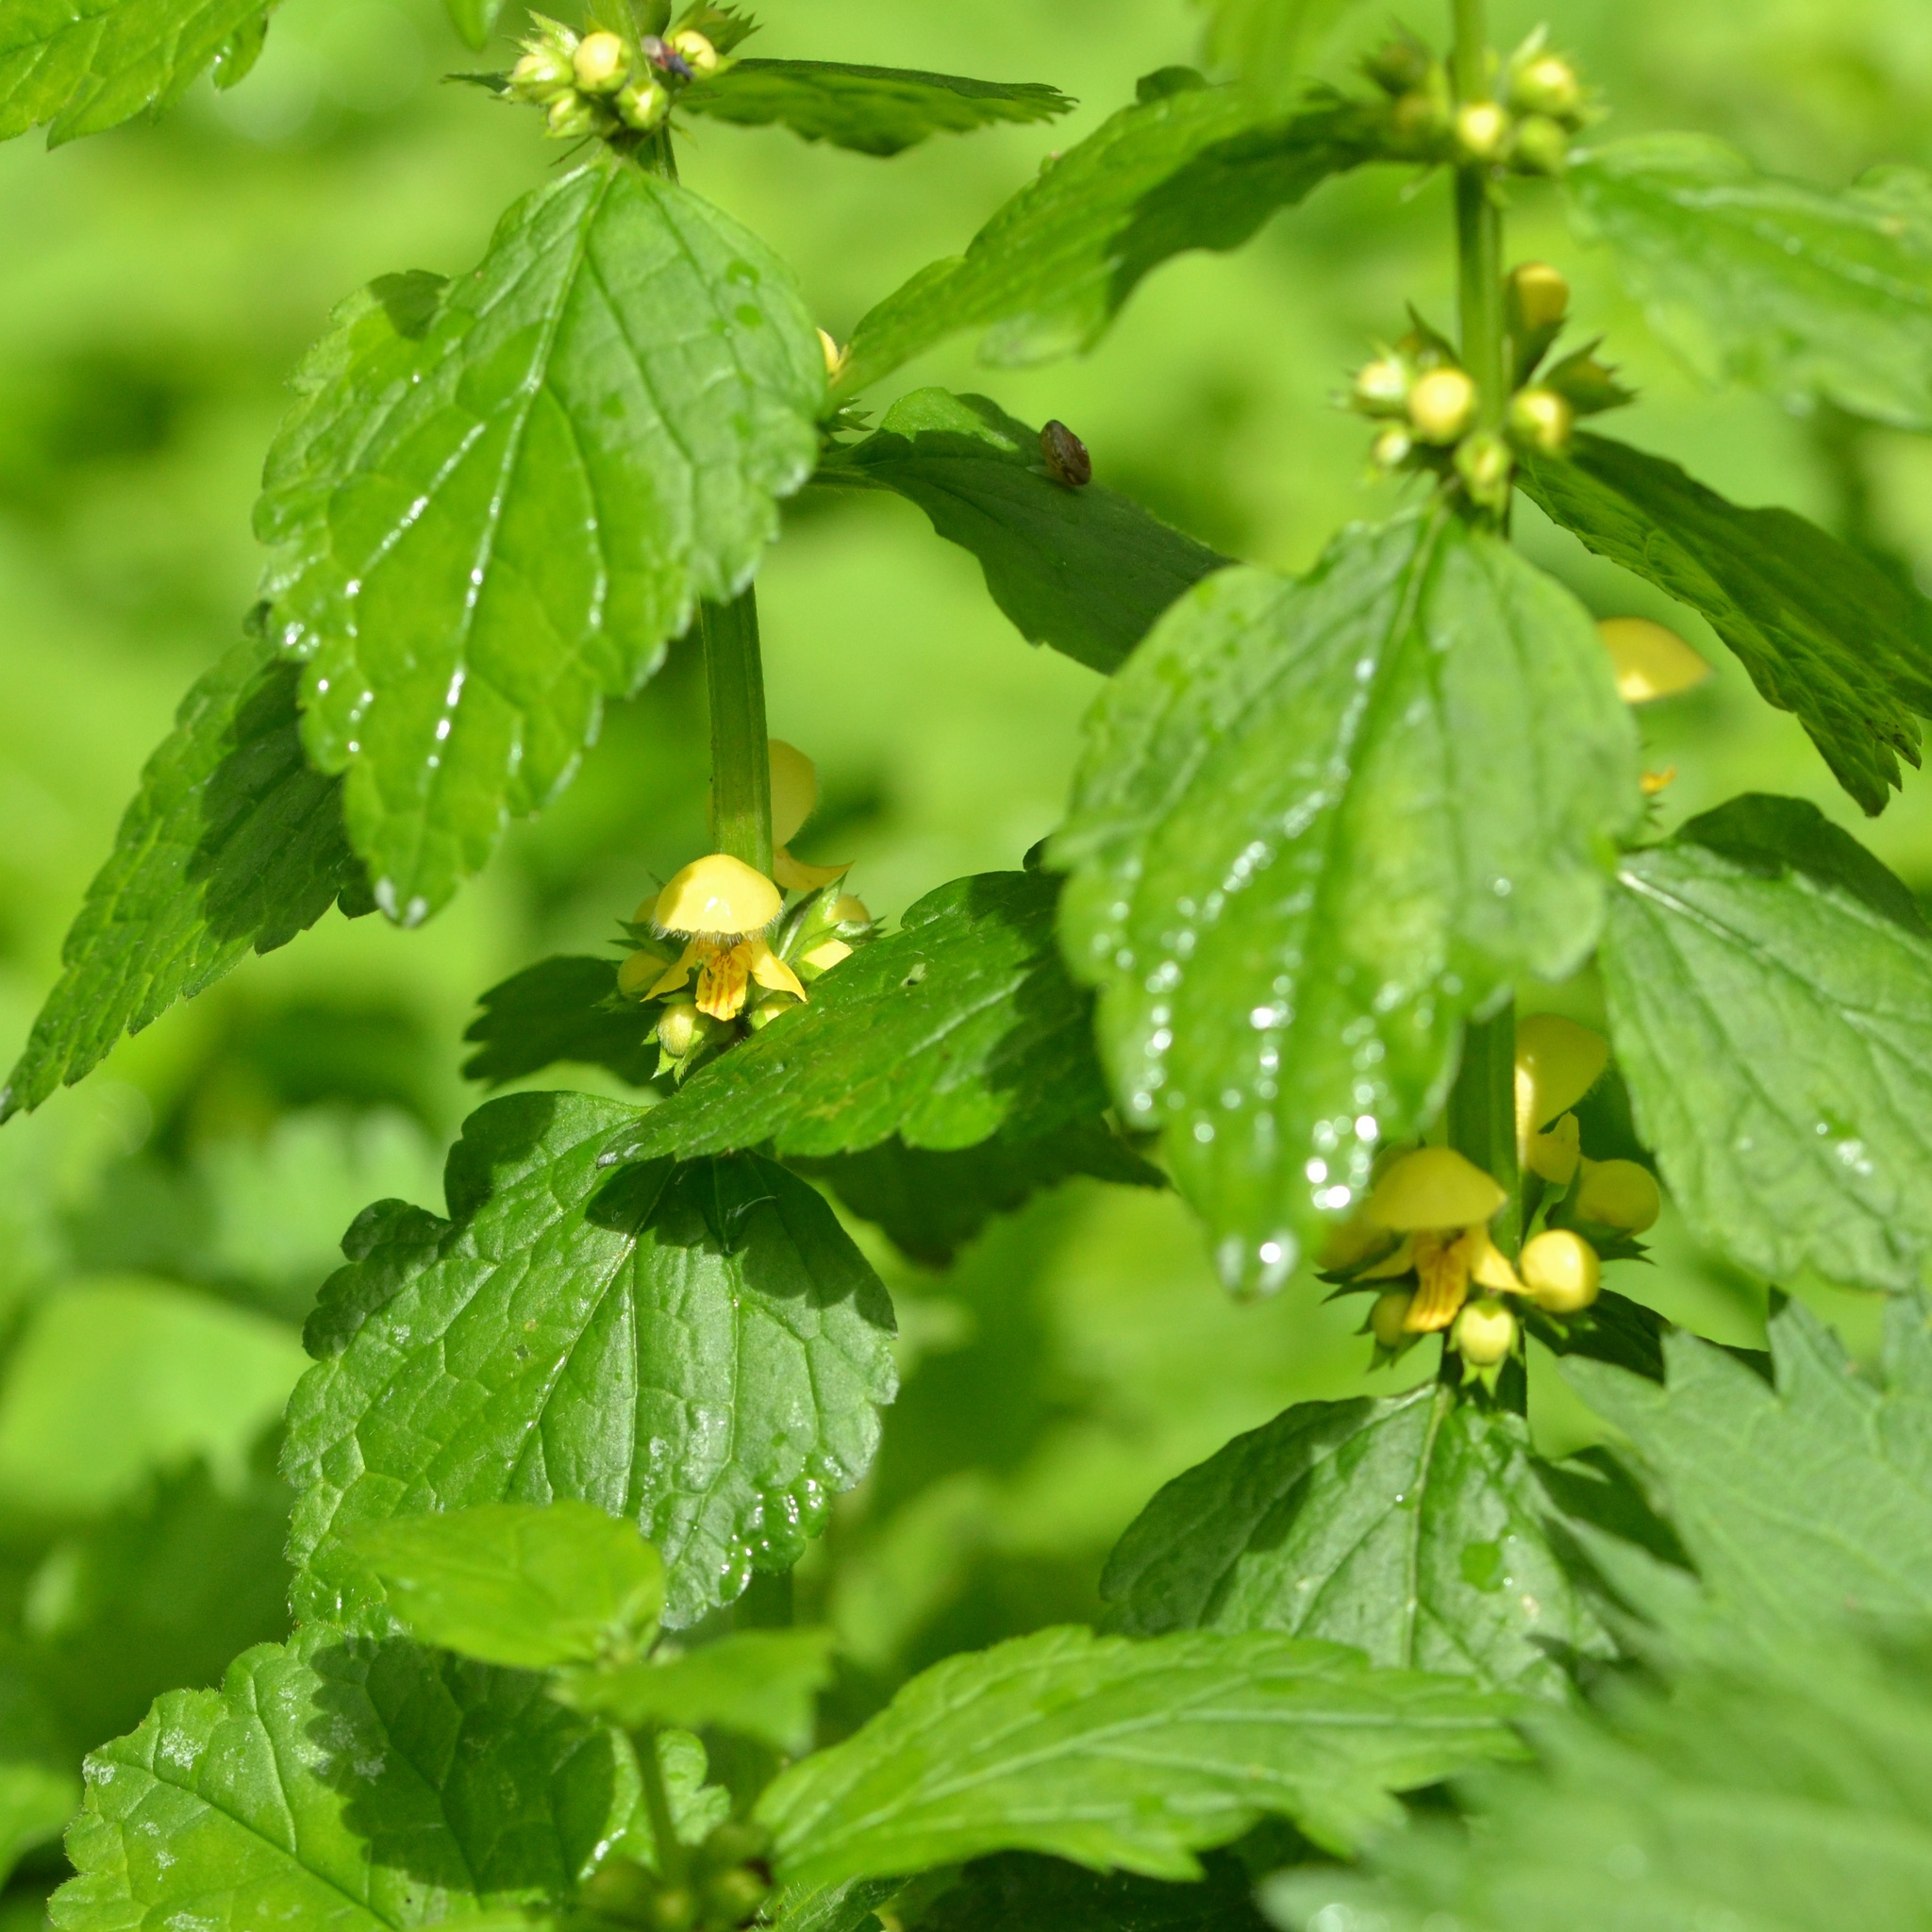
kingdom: Plantae
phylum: Tracheophyta
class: Magnoliopsida
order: Lamiales
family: Lamiaceae
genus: Lamium
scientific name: Lamium galeobdolon
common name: Yellow archangel
